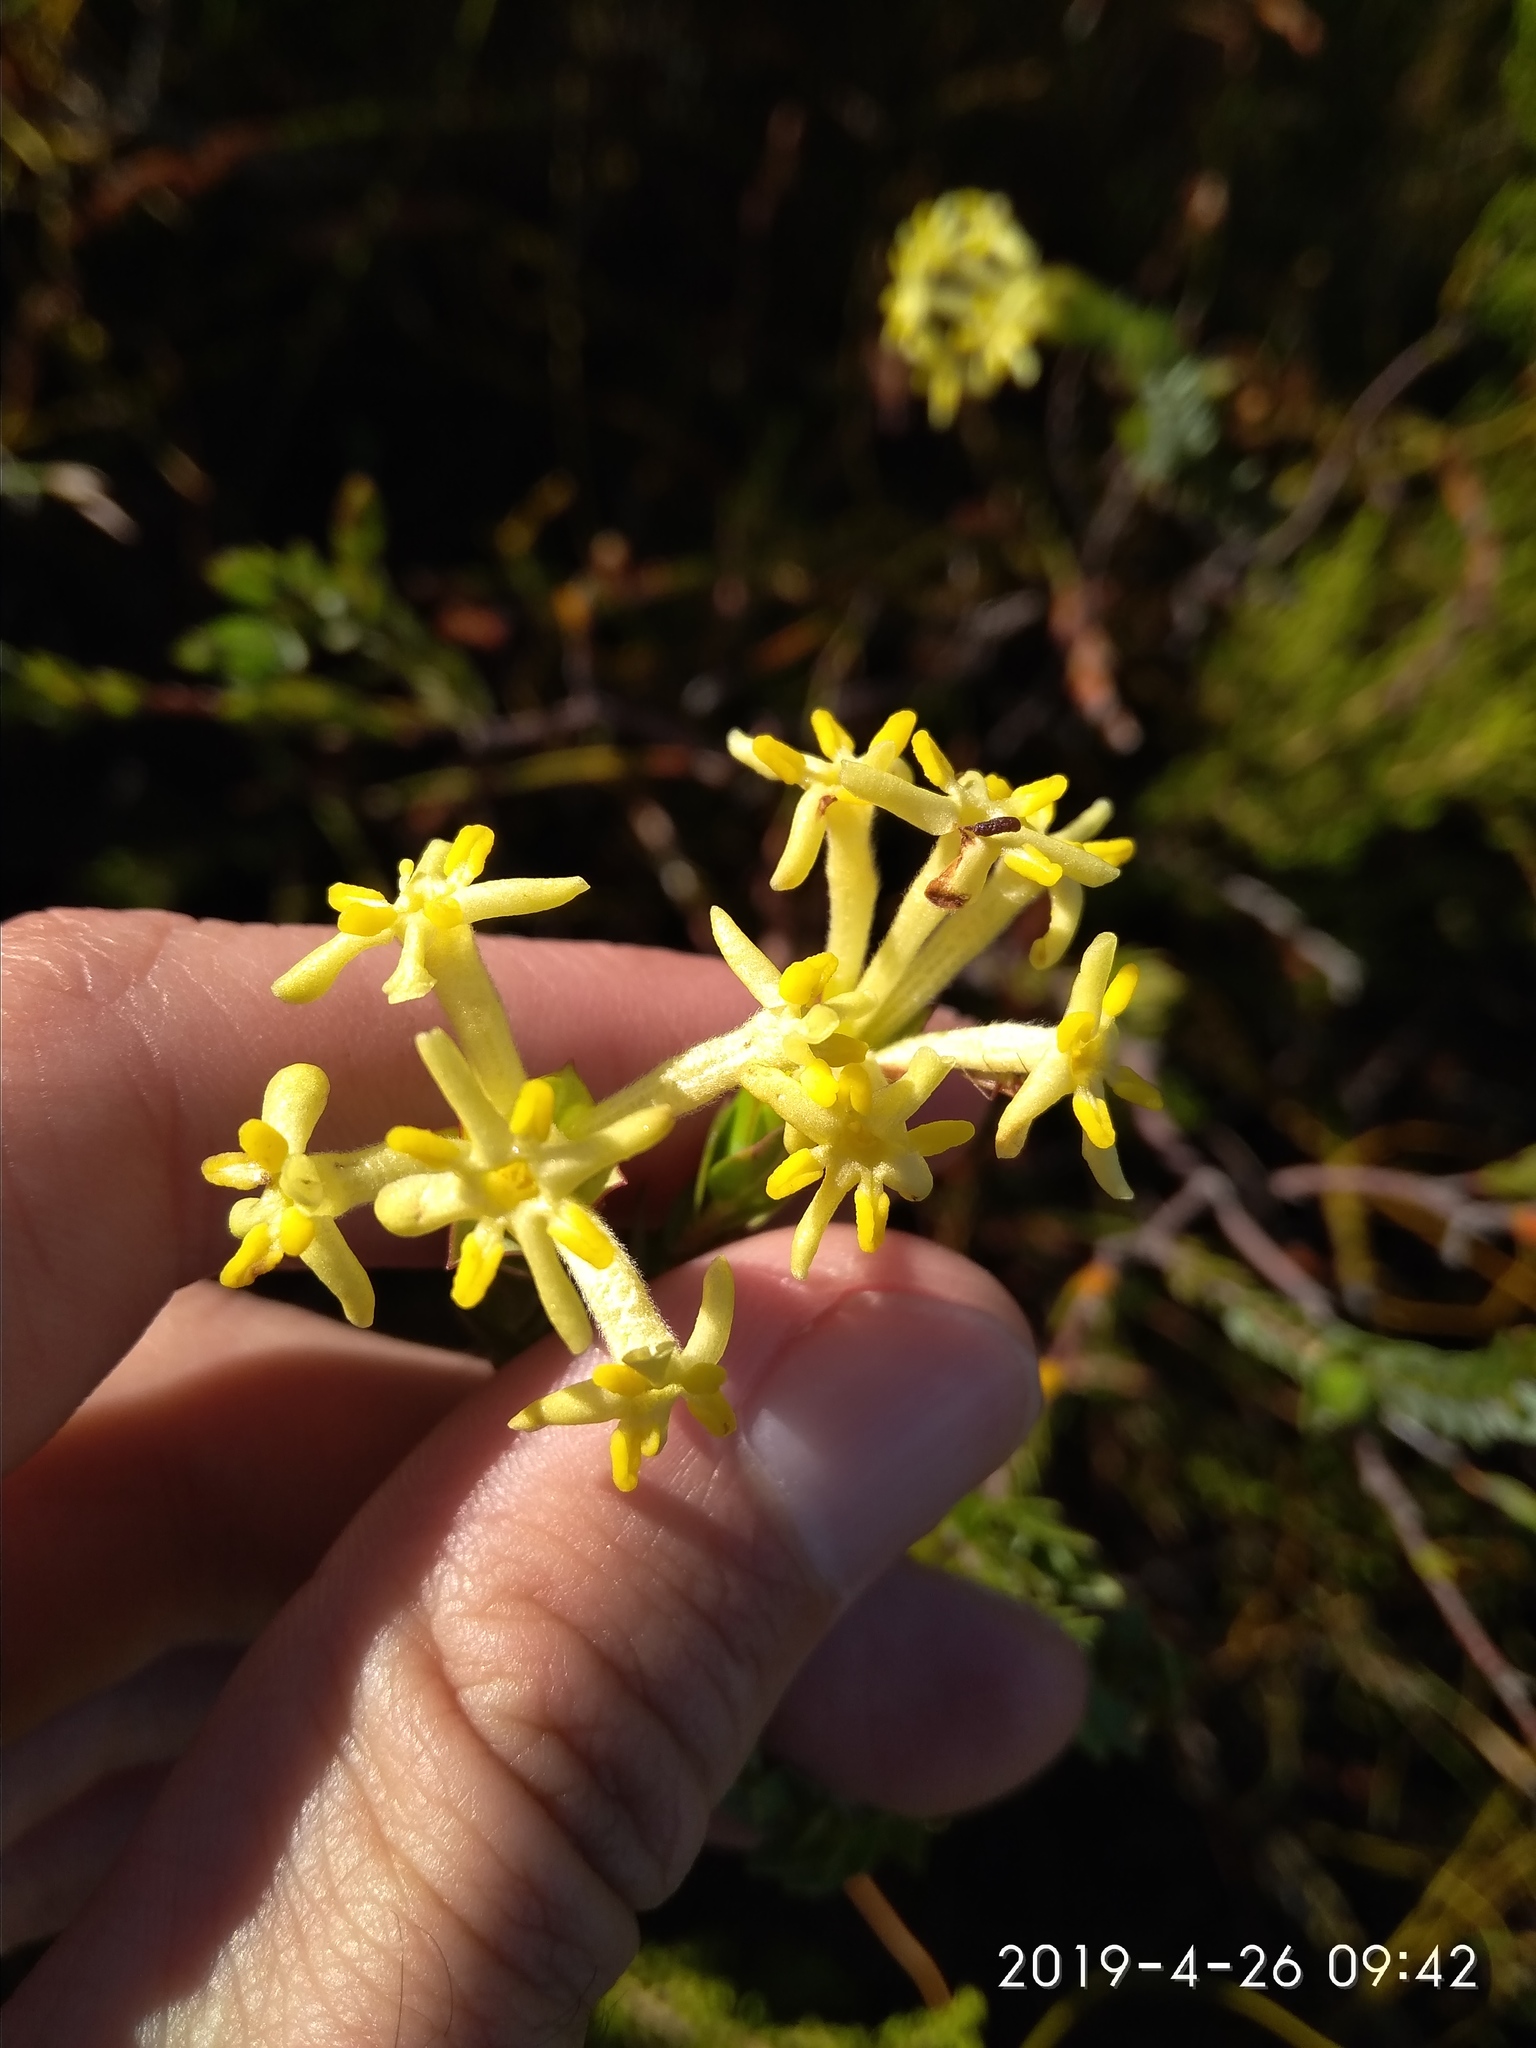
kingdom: Plantae
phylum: Tracheophyta
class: Magnoliopsida
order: Malvales
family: Thymelaeaceae
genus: Gnidia
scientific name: Gnidia oppositifolia
